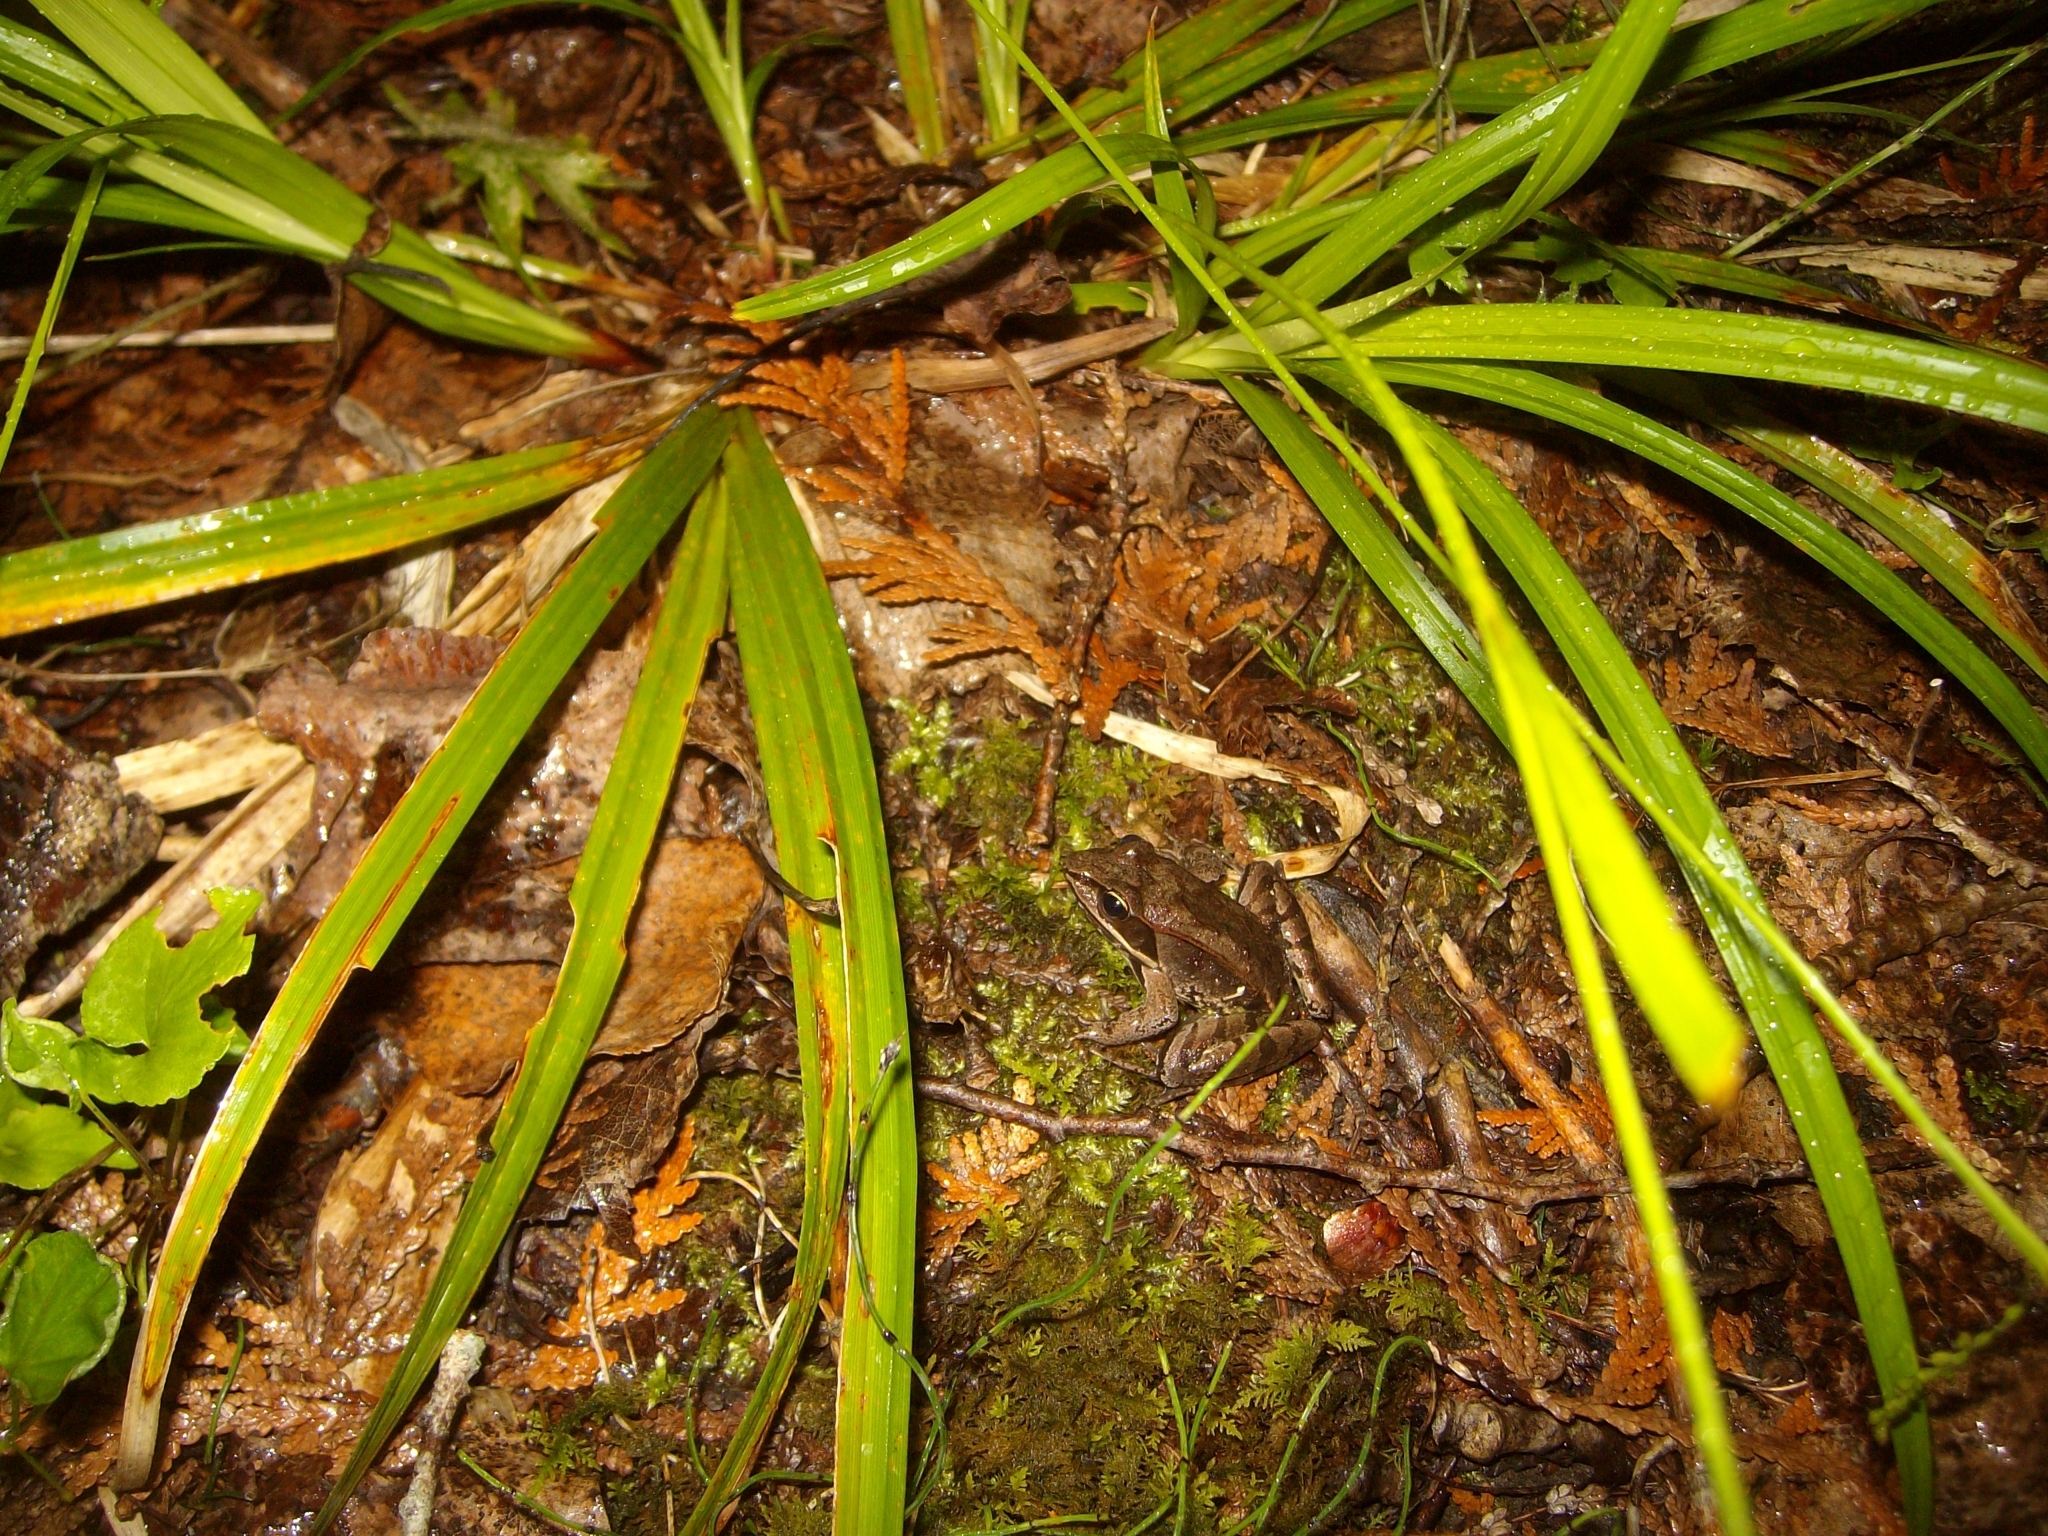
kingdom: Animalia
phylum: Chordata
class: Amphibia
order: Anura
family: Ranidae
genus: Lithobates
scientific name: Lithobates sylvaticus
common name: Wood frog
